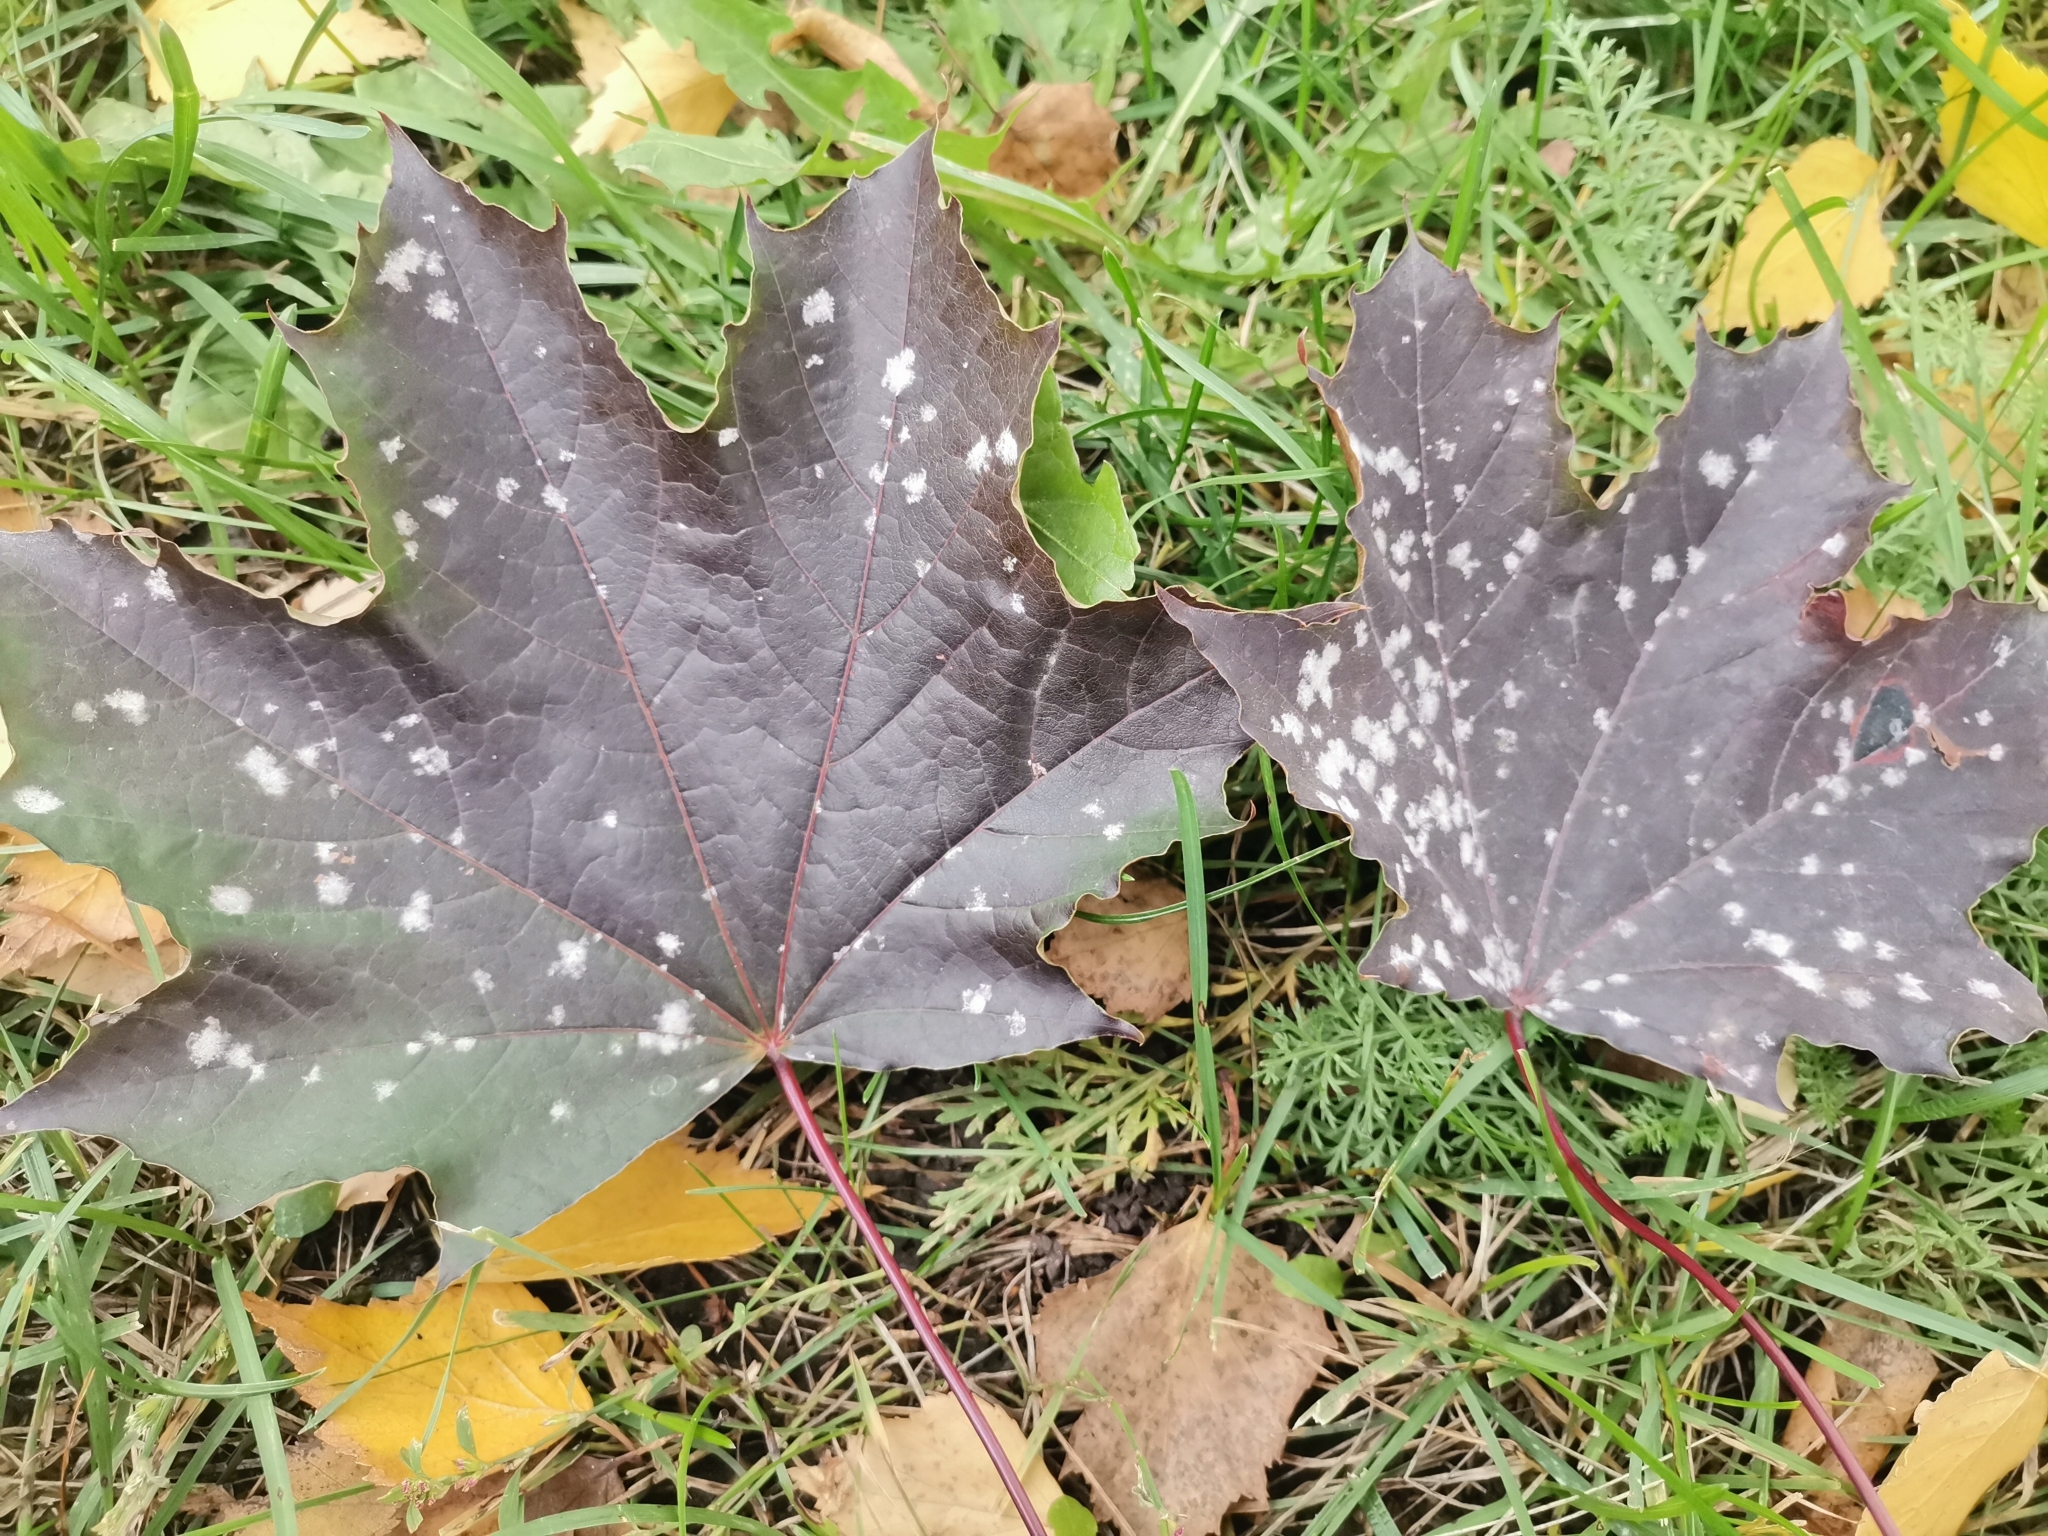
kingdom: Fungi
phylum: Ascomycota
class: Leotiomycetes
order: Helotiales
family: Erysiphaceae
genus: Sawadaea
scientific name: Sawadaea tulasnei
